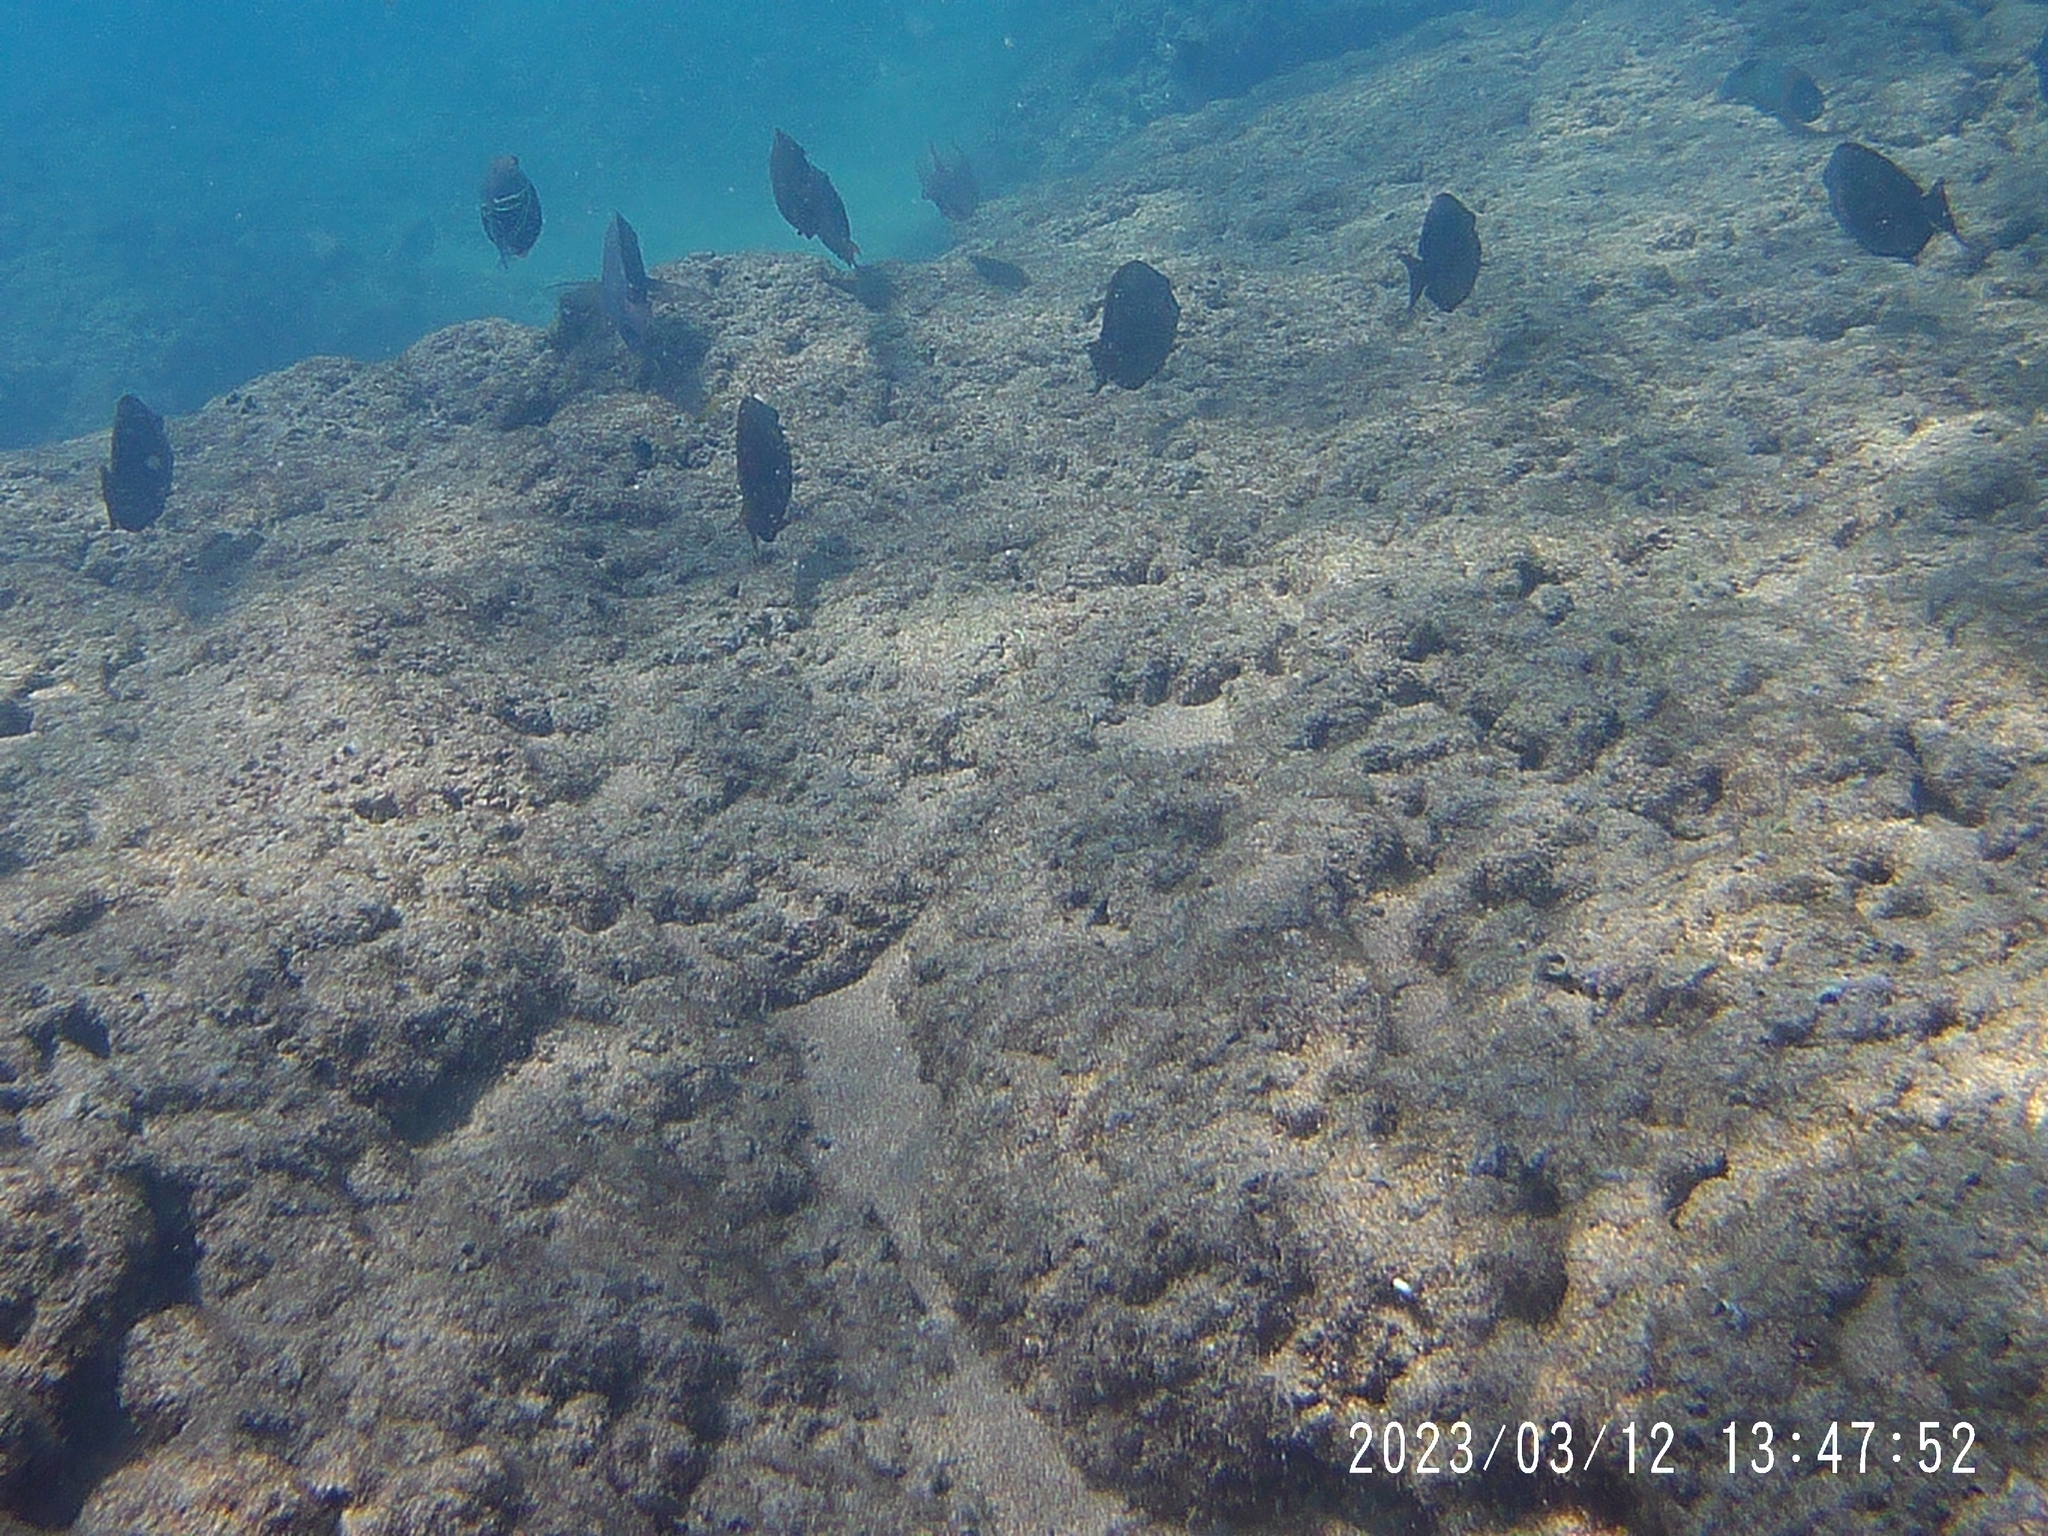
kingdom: Animalia
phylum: Chordata
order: Tetraodontiformes
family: Balistidae
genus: Rhinecanthus
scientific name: Rhinecanthus rectangulus
